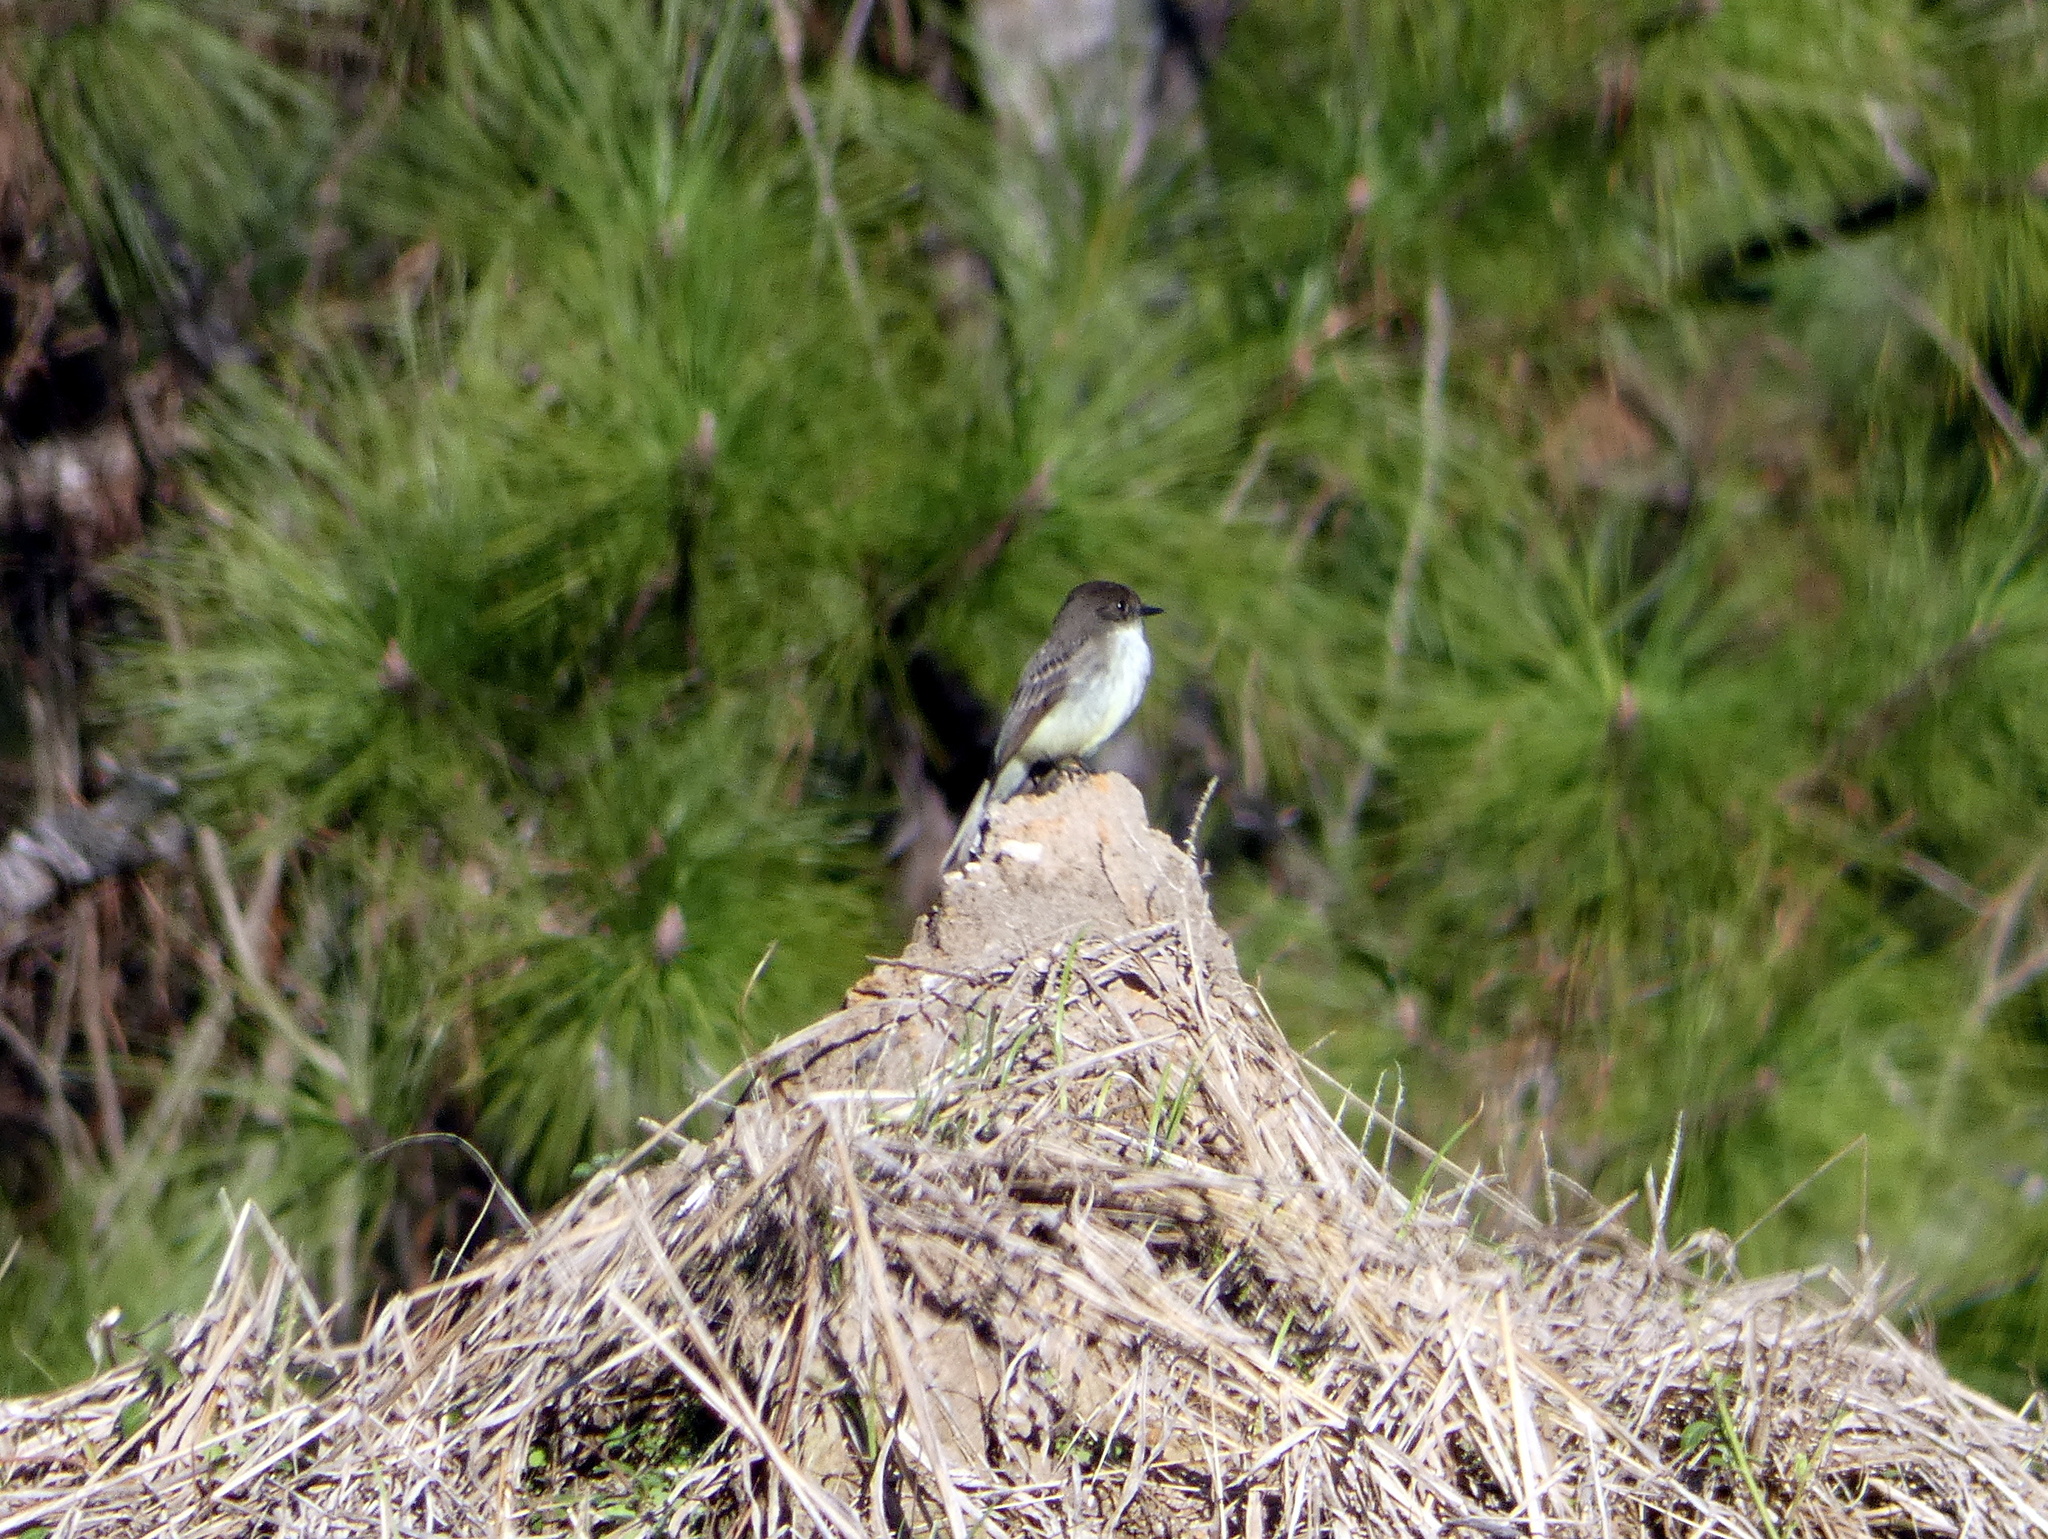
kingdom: Animalia
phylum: Chordata
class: Aves
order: Passeriformes
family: Tyrannidae
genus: Sayornis
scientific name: Sayornis phoebe
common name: Eastern phoebe
